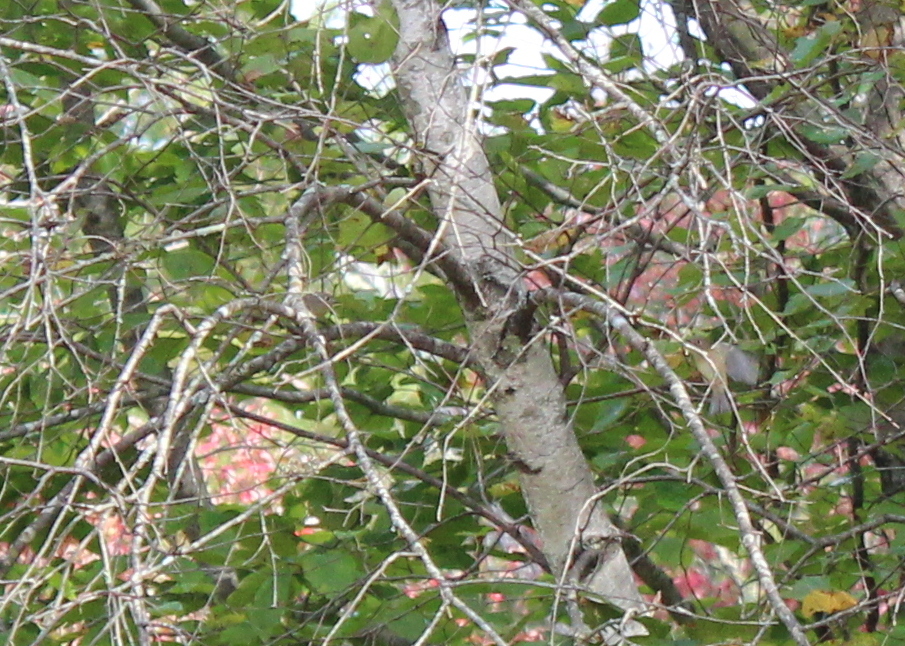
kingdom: Animalia
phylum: Chordata
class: Aves
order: Passeriformes
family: Regulidae
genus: Regulus
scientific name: Regulus calendula
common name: Ruby-crowned kinglet
